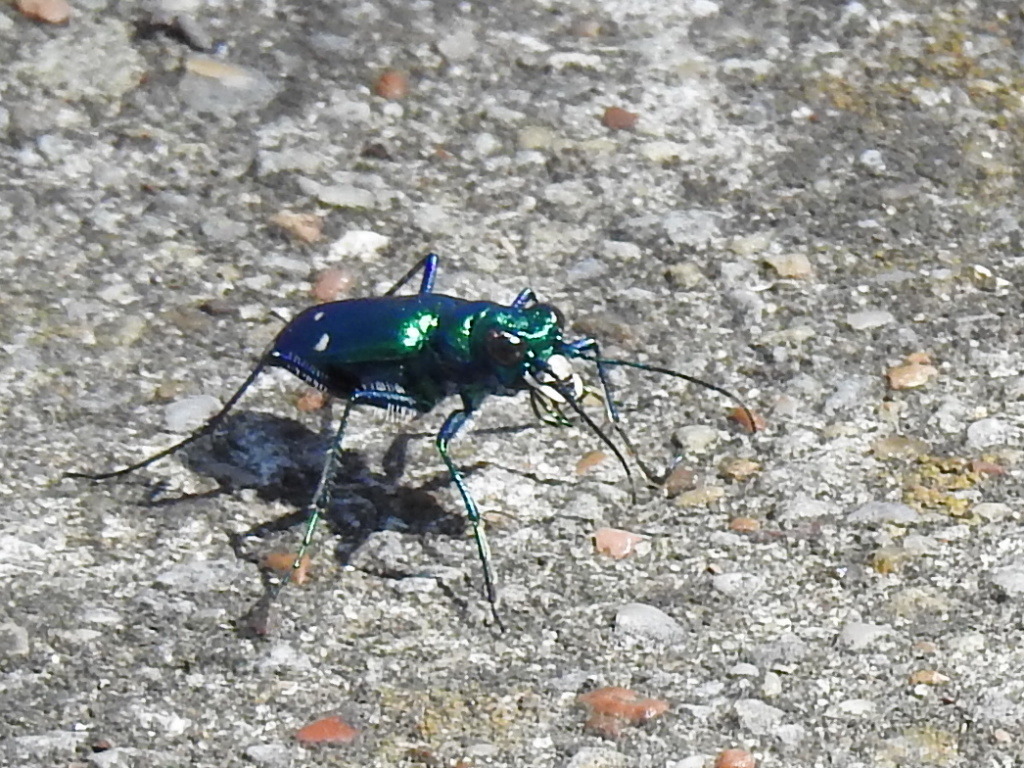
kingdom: Animalia
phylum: Arthropoda
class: Insecta
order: Coleoptera
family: Carabidae
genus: Cicindela
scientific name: Cicindela sexguttata
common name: Six-spotted tiger beetle
